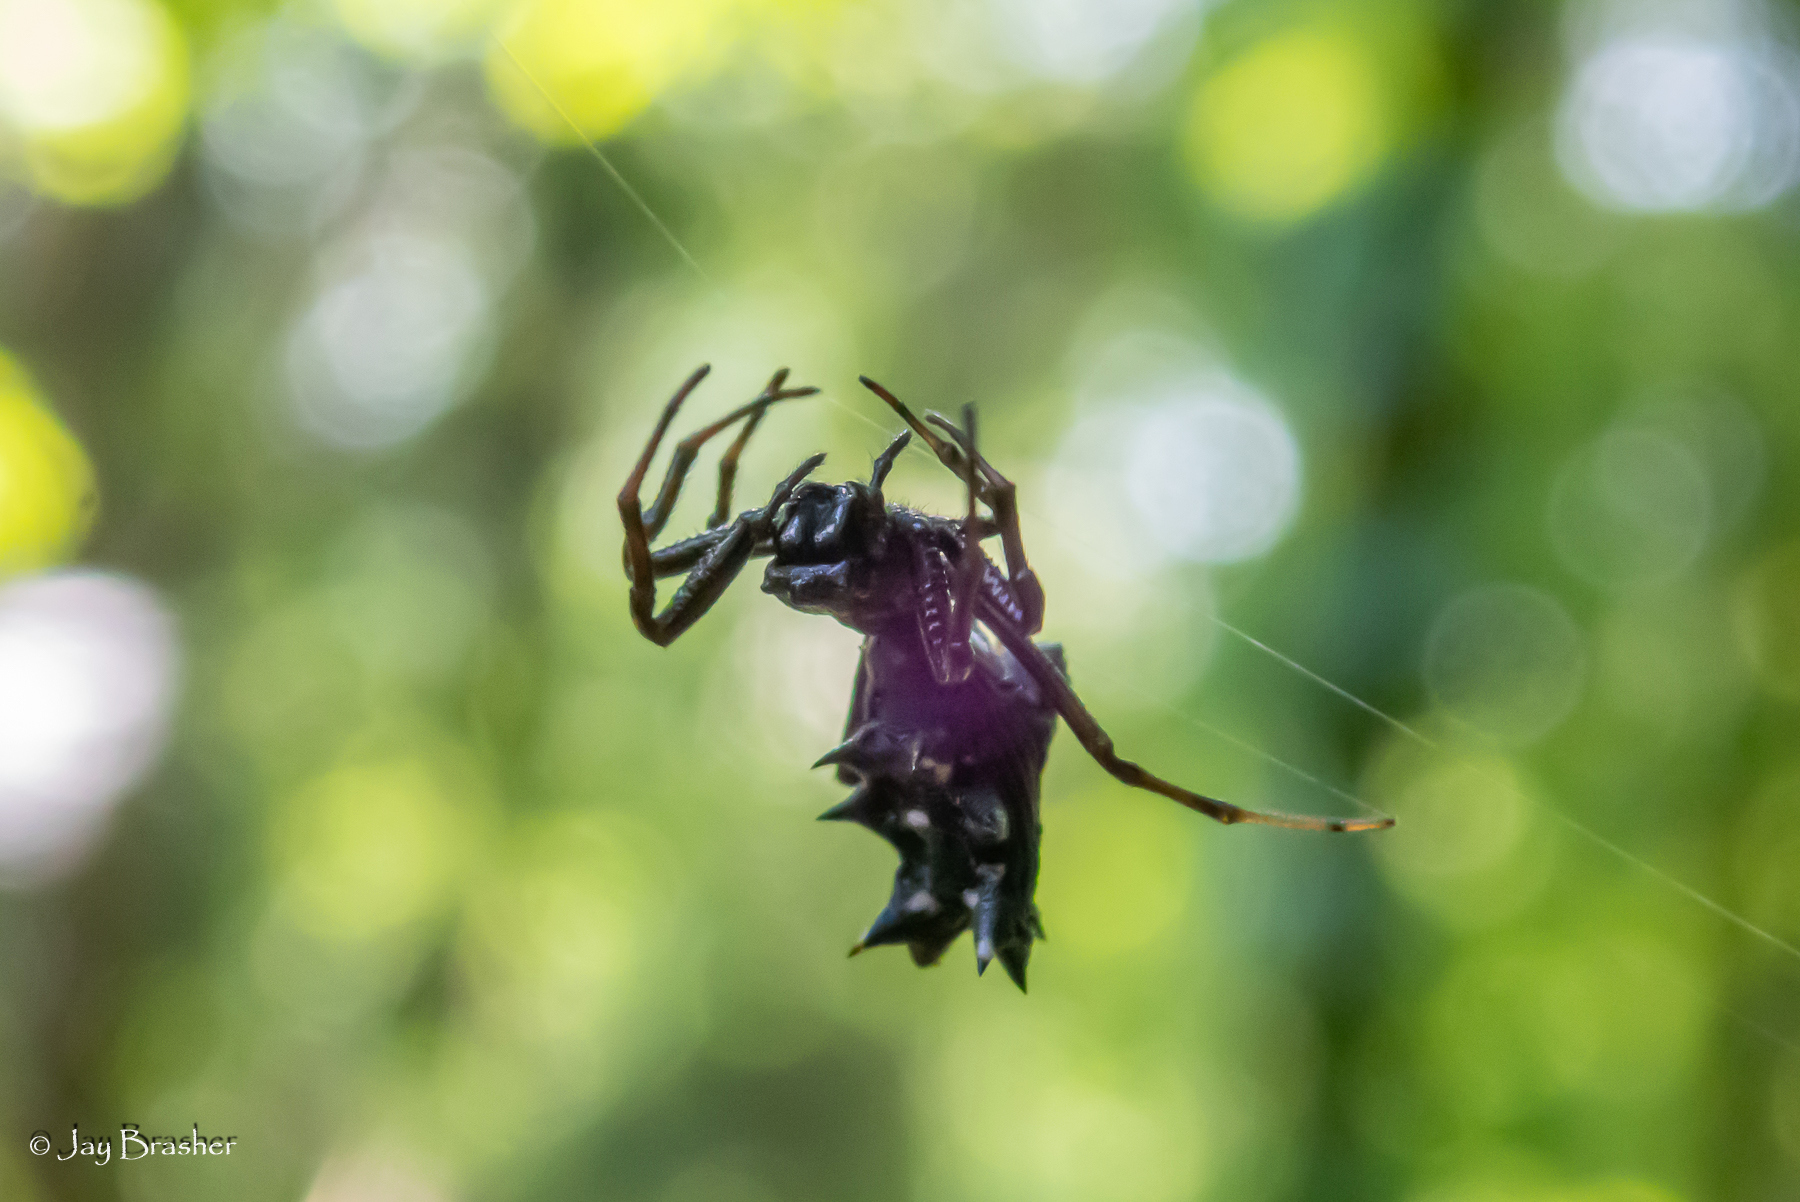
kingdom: Animalia
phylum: Arthropoda
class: Arachnida
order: Araneae
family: Araneidae
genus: Micrathena
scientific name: Micrathena gracilis
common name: Orb weavers
